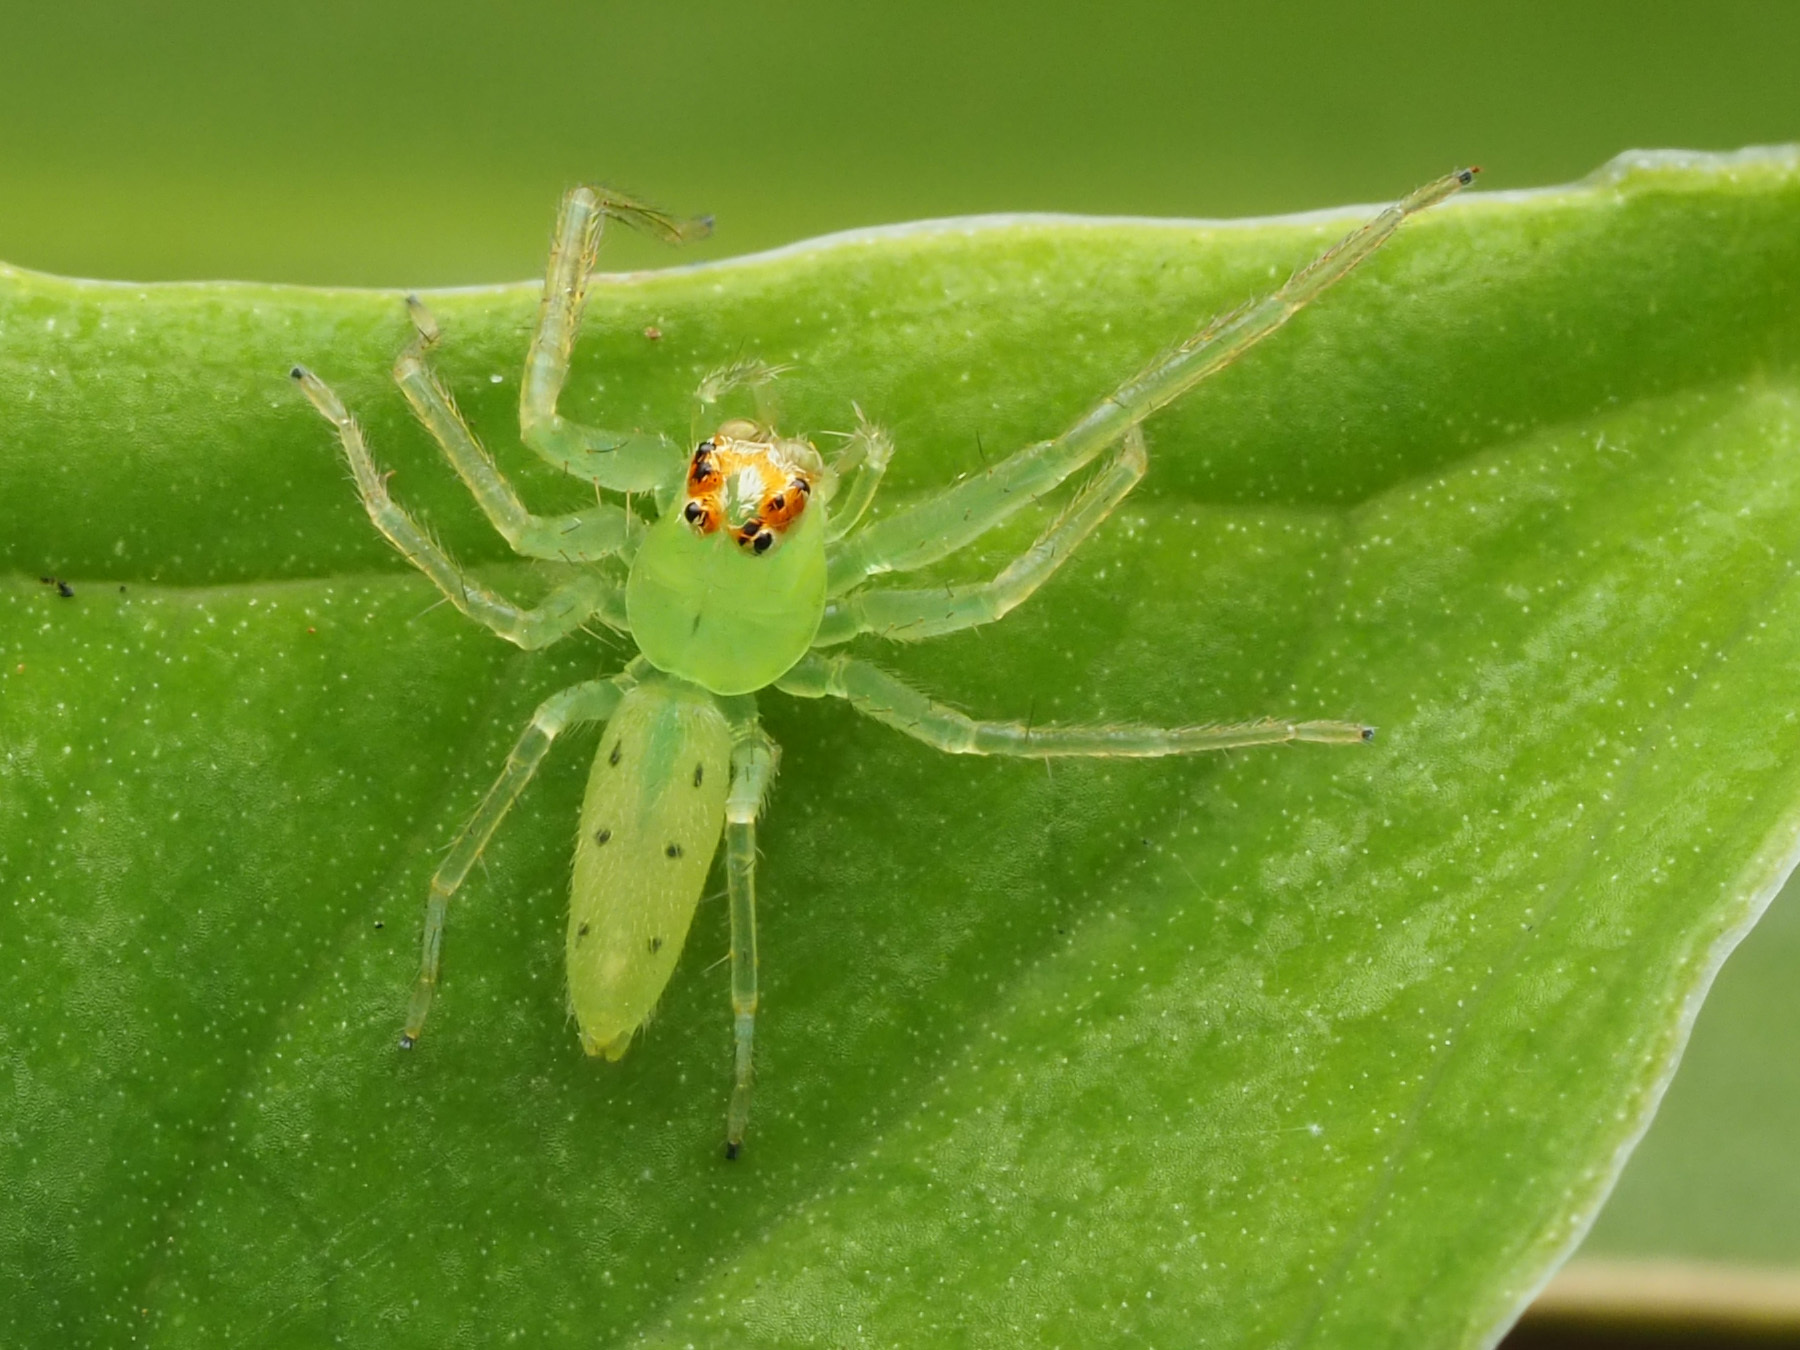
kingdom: Animalia
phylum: Arthropoda
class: Arachnida
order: Araneae
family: Salticidae
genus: Lyssomanes
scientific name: Lyssomanes viridis
